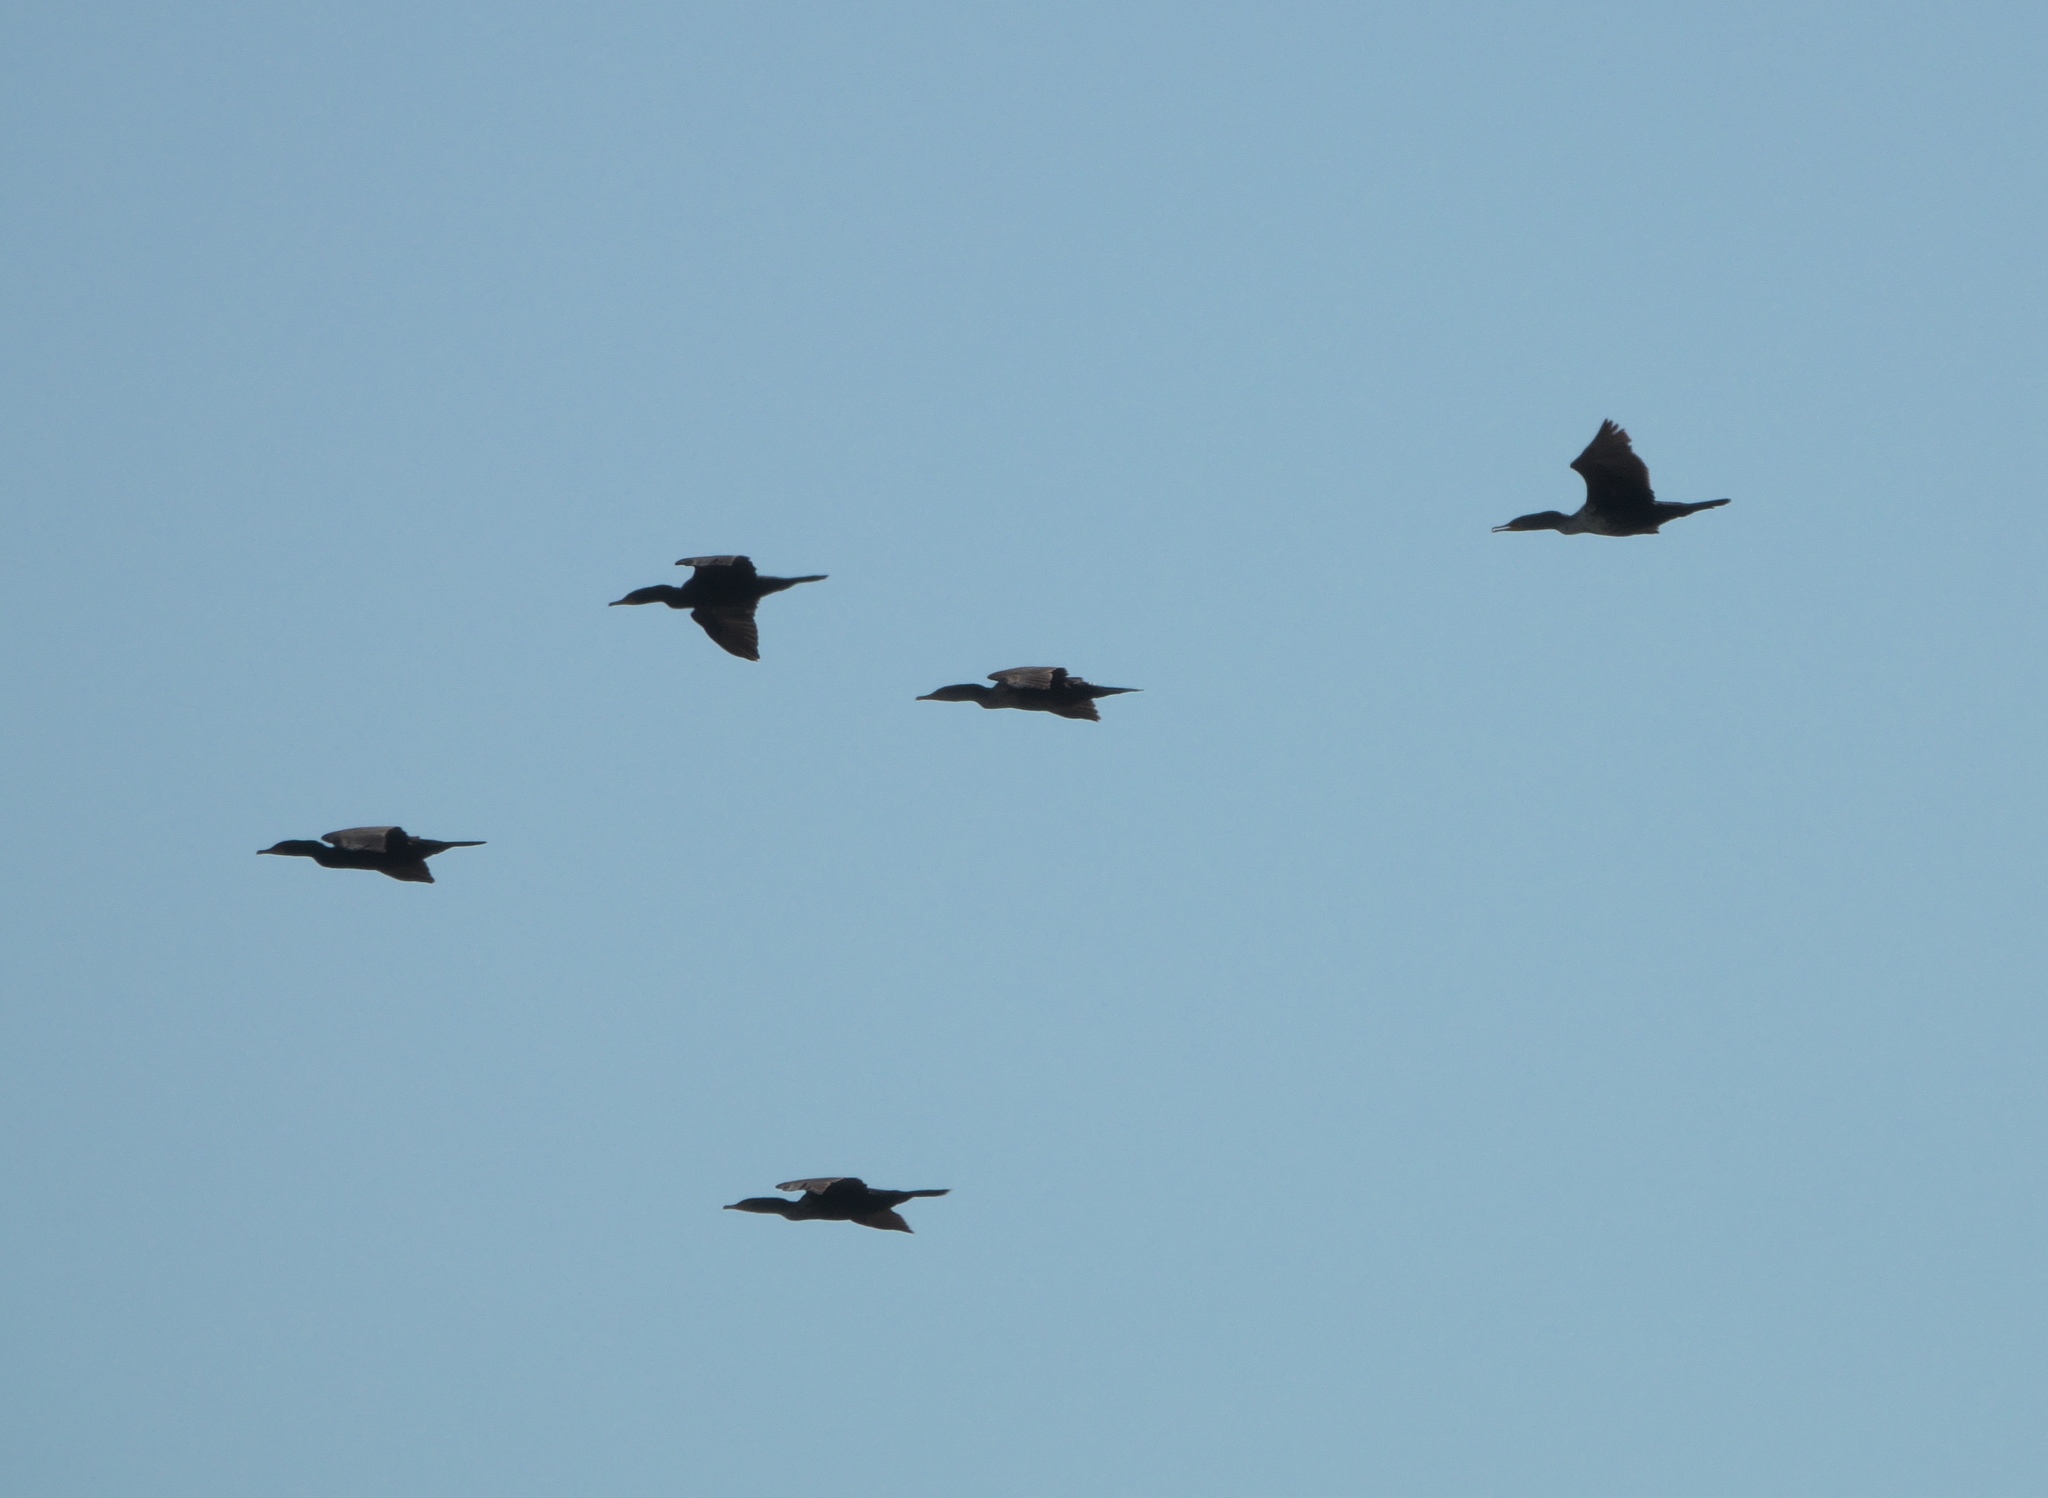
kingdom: Animalia
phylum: Chordata
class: Aves
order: Suliformes
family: Phalacrocoracidae
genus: Phalacrocorax
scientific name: Phalacrocorax auritus
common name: Double-crested cormorant
